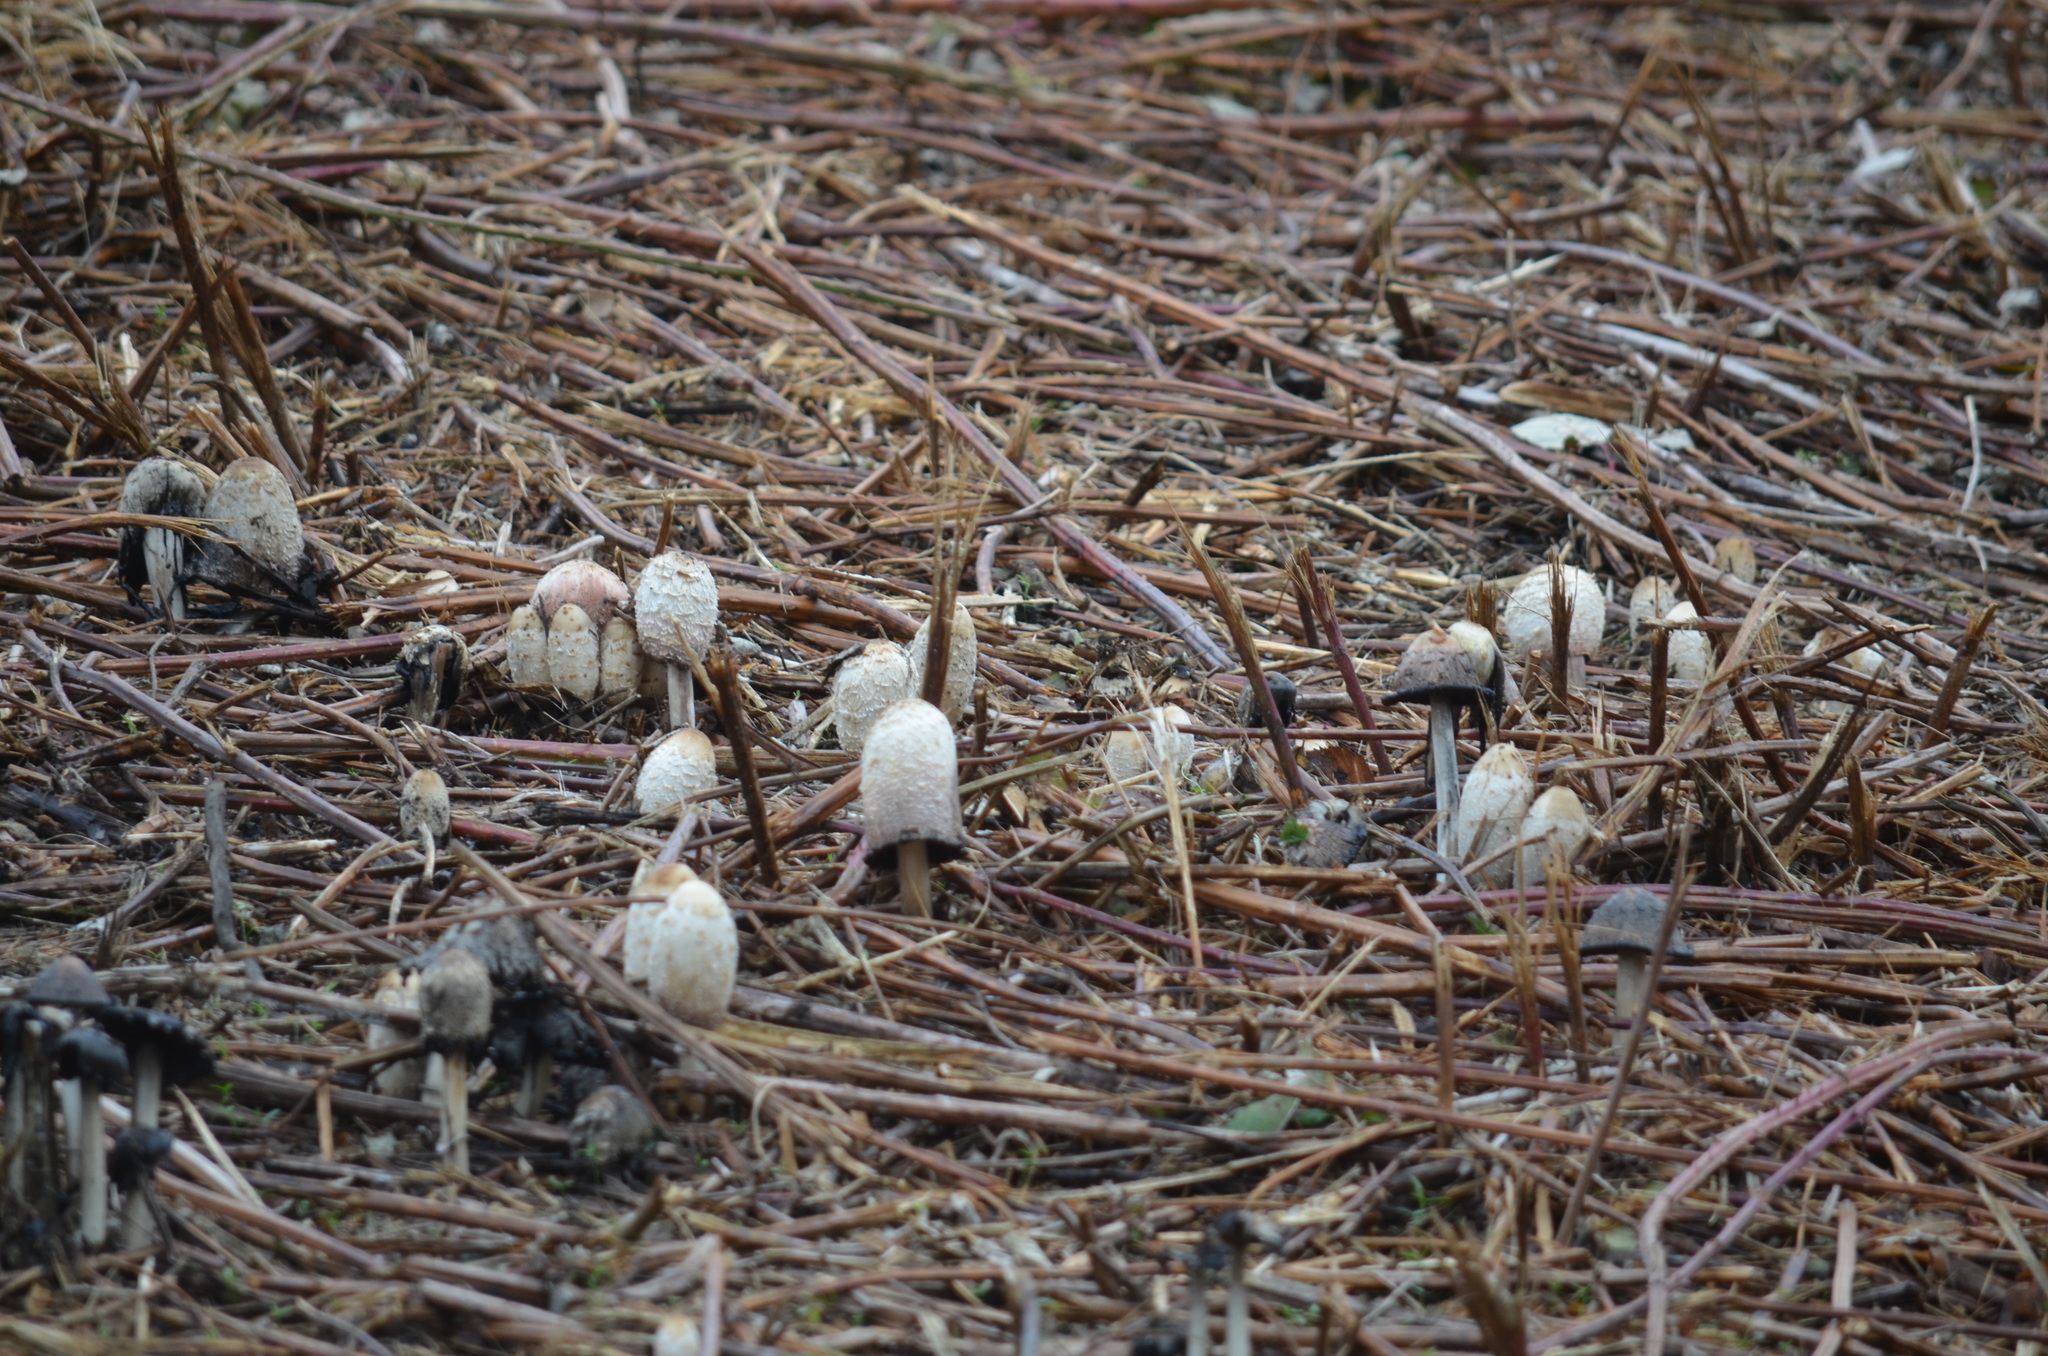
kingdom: Fungi
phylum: Basidiomycota
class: Agaricomycetes
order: Agaricales
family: Agaricaceae
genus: Coprinus
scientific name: Coprinus comatus
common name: Lawyer's wig
